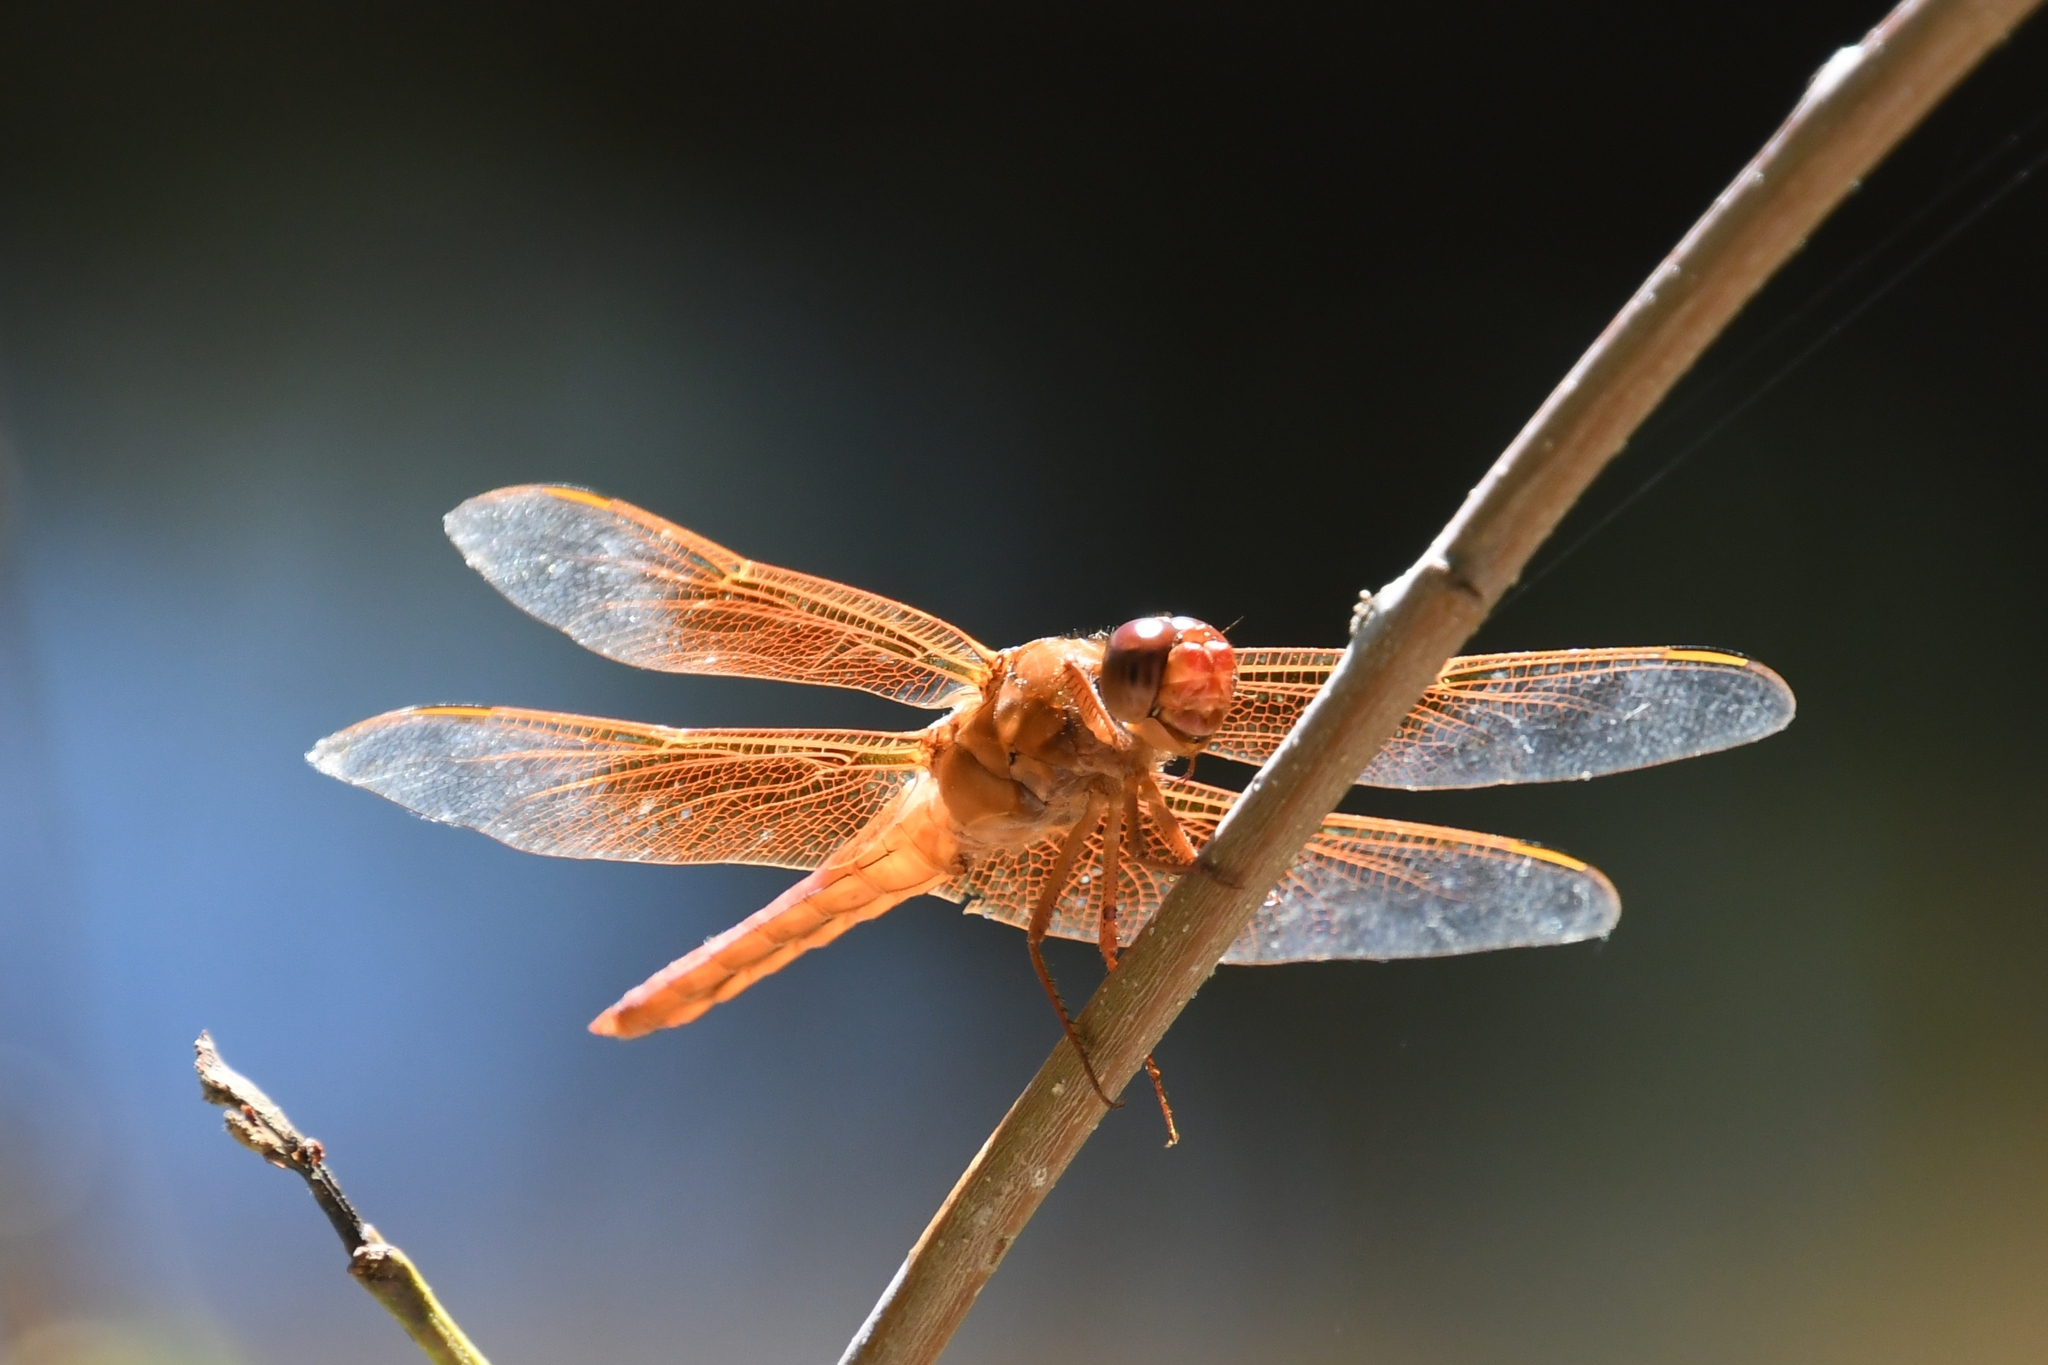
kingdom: Animalia
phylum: Arthropoda
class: Insecta
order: Odonata
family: Libellulidae
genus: Libellula
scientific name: Libellula saturata
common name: Flame skimmer
